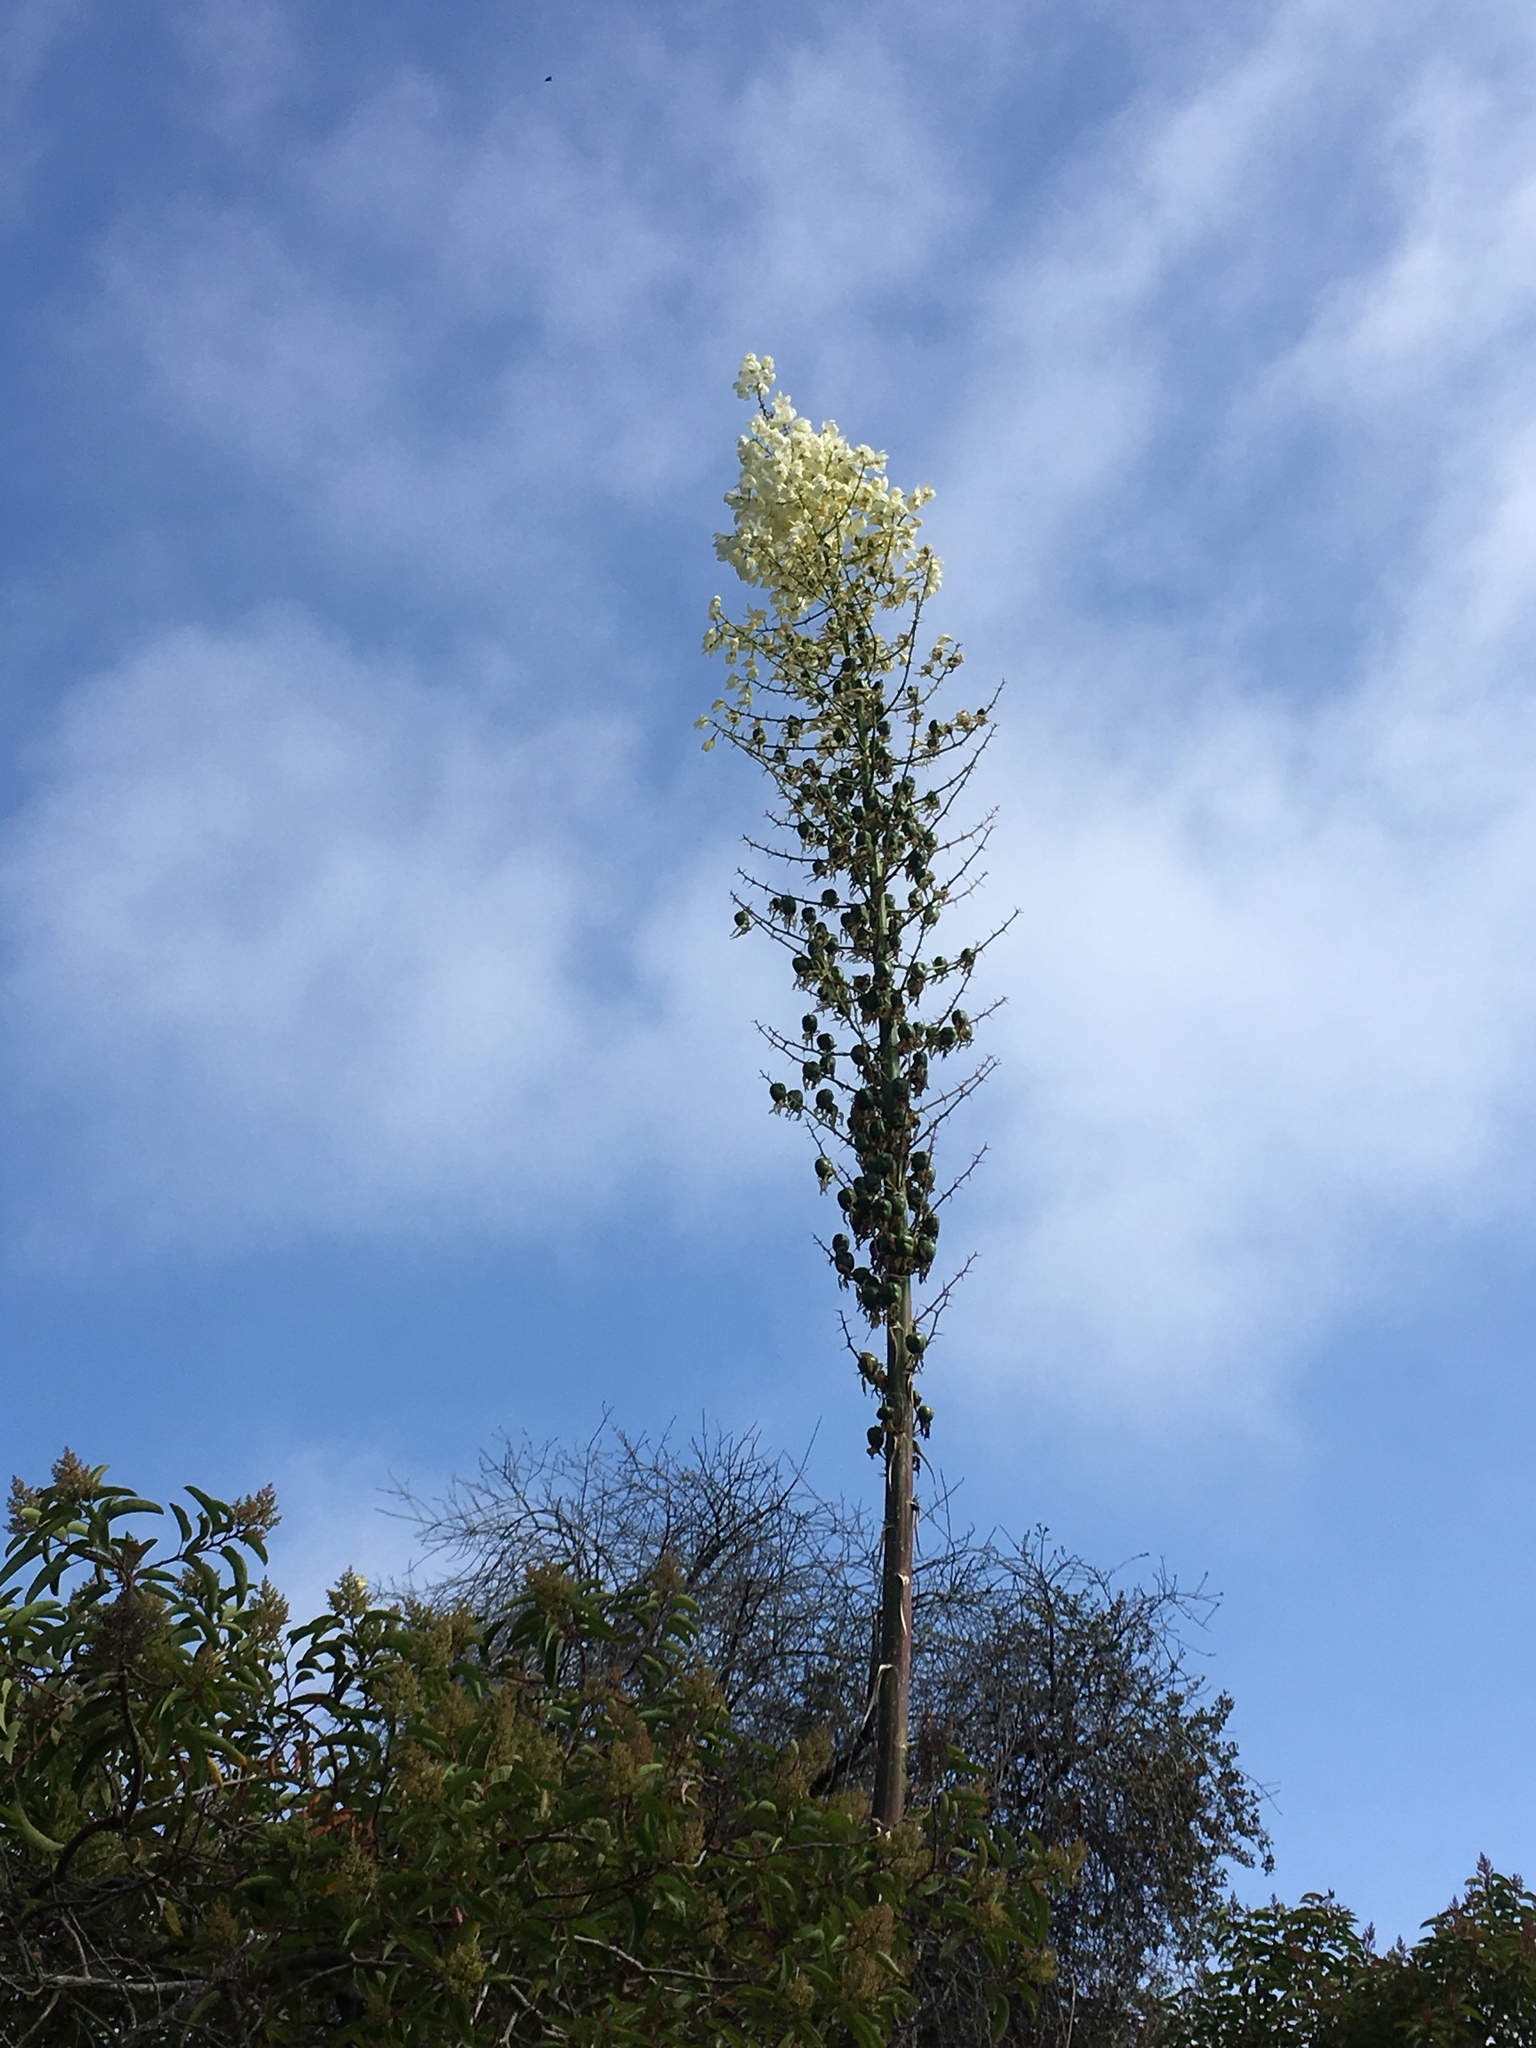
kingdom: Plantae
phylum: Tracheophyta
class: Liliopsida
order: Asparagales
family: Asparagaceae
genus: Hesperoyucca
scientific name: Hesperoyucca whipplei
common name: Our lord's-candle
